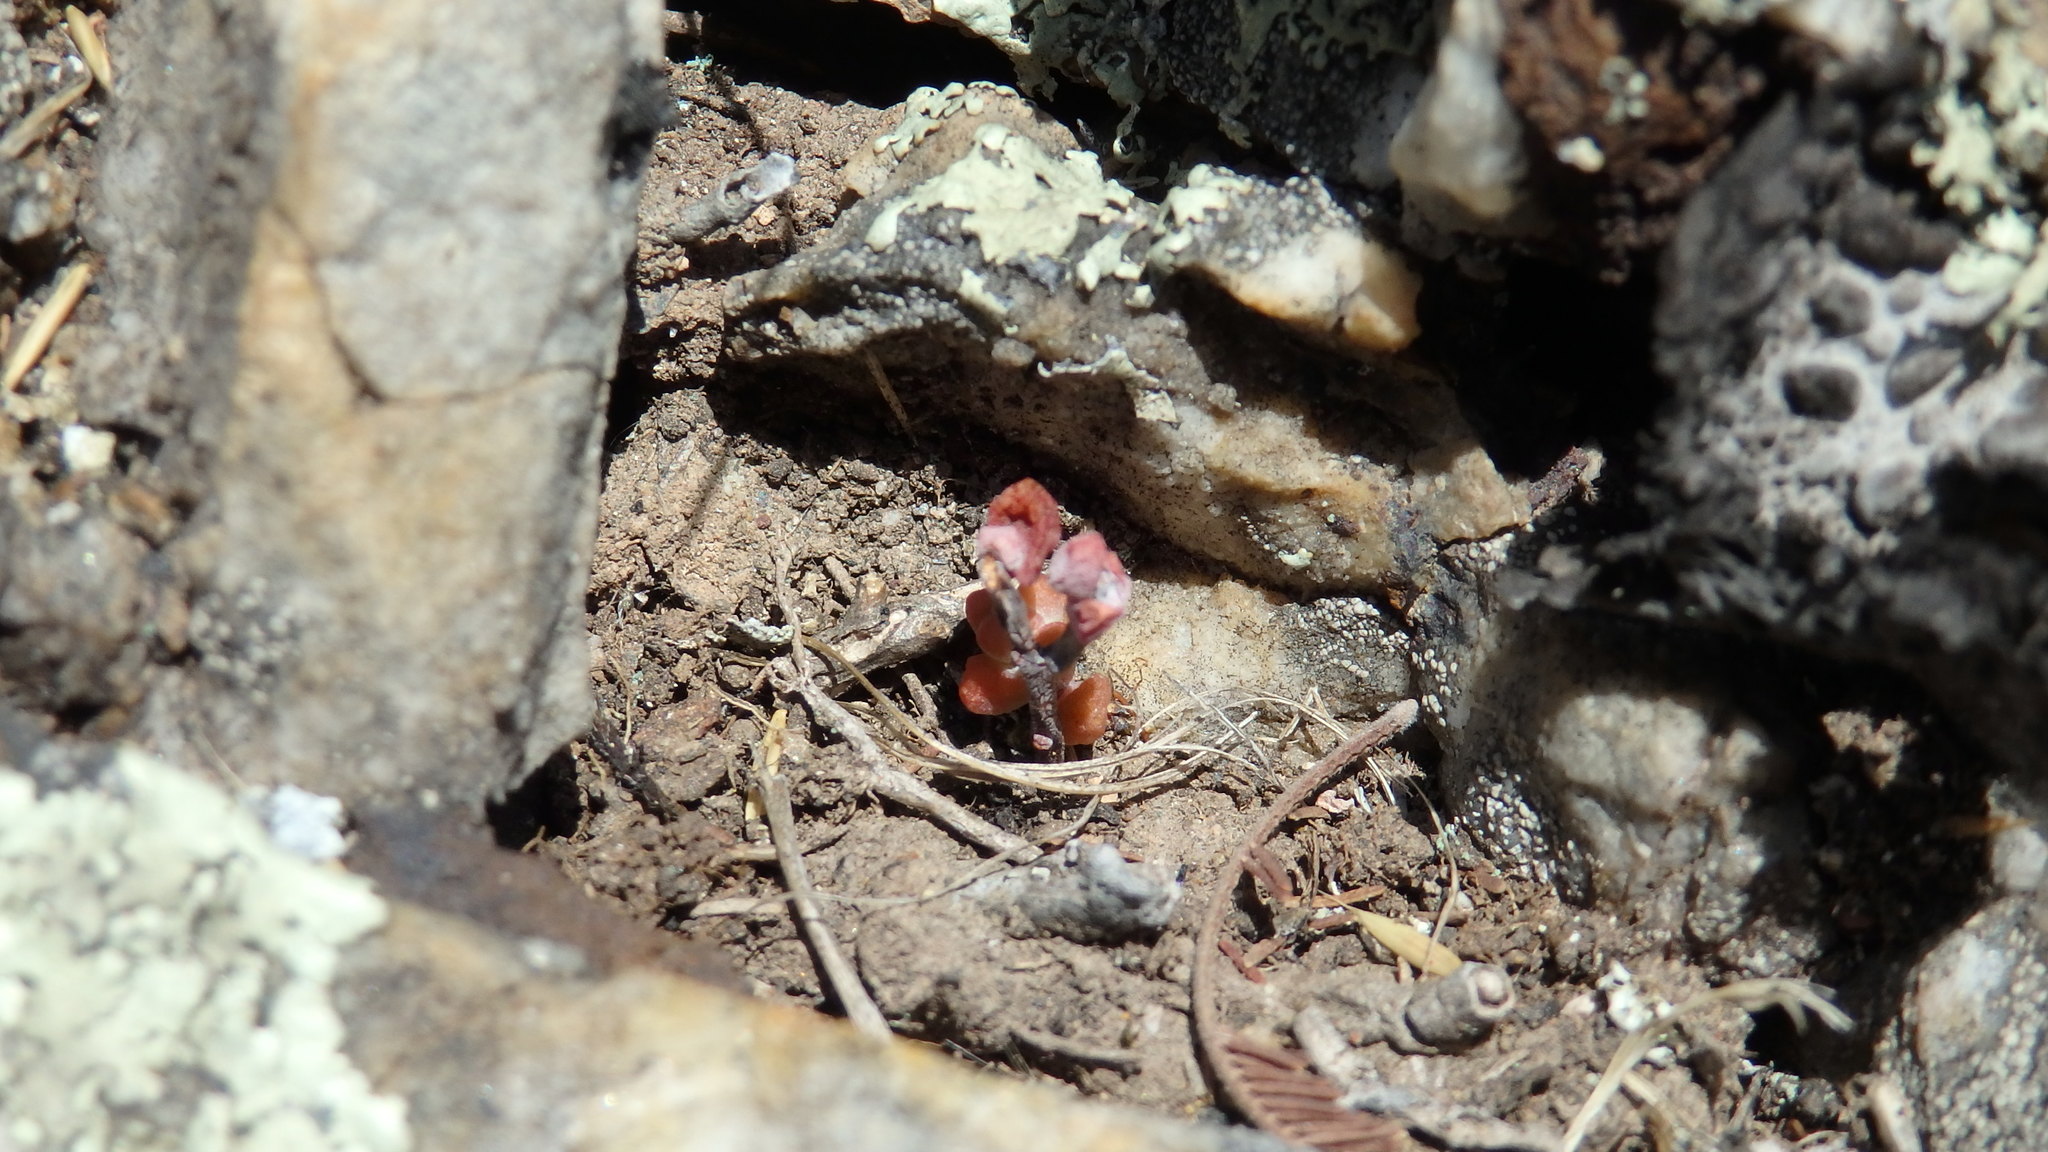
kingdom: Plantae
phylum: Tracheophyta
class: Magnoliopsida
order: Saxifragales
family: Crassulaceae
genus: Sedum
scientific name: Sedum brevifolium
